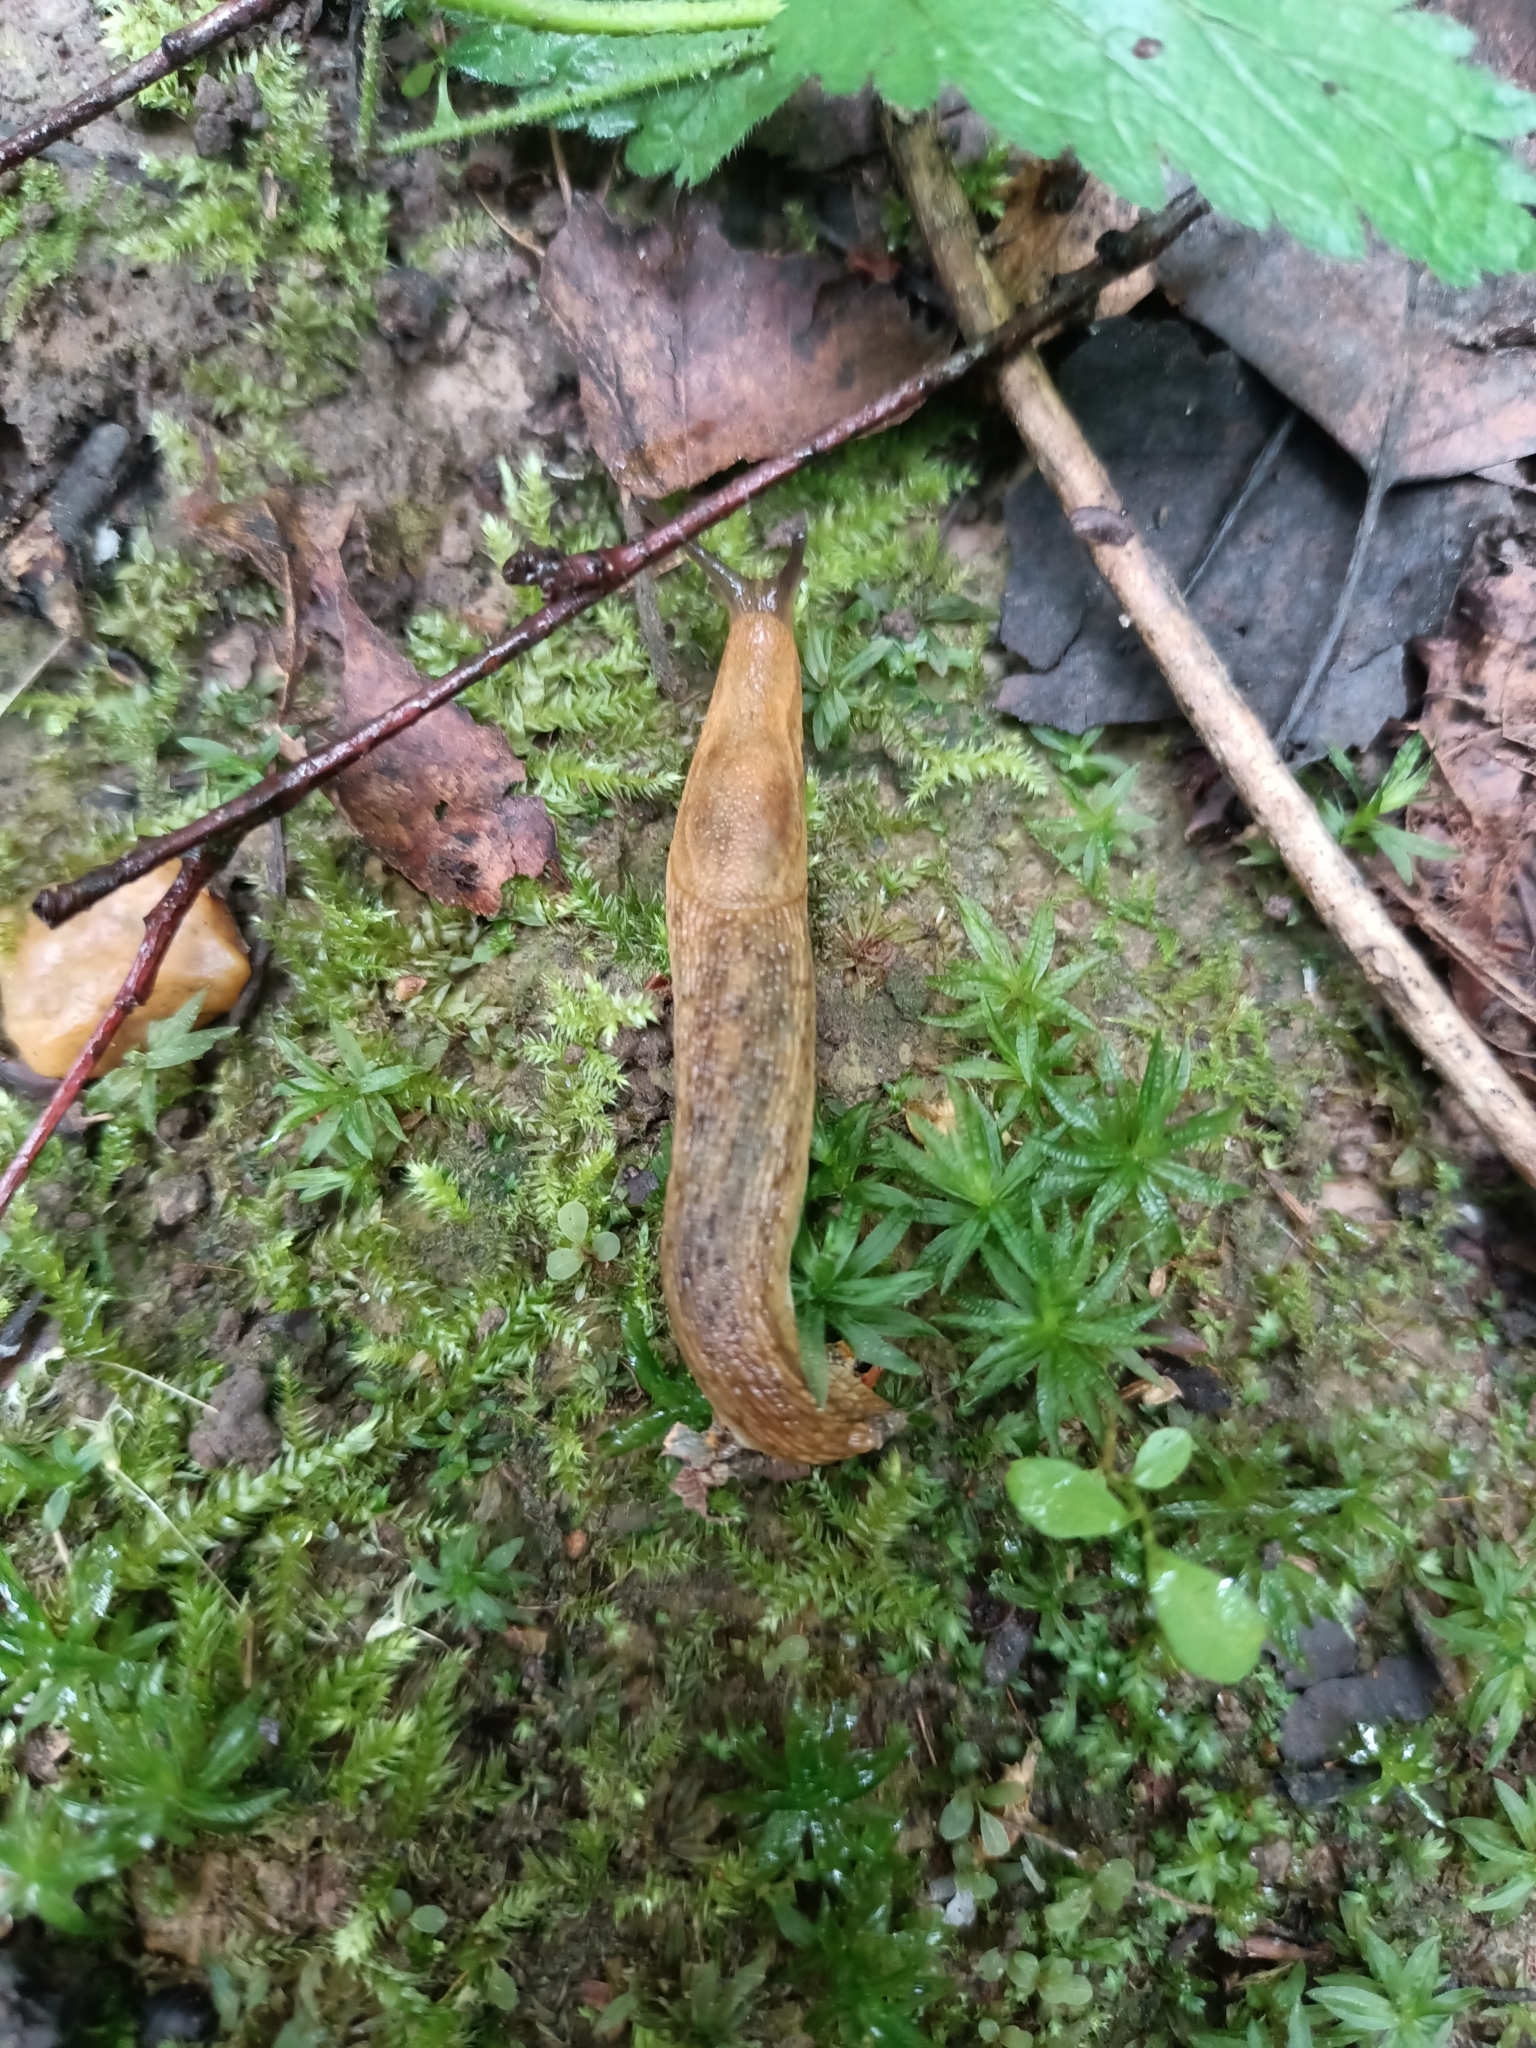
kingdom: Animalia
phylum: Mollusca
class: Gastropoda
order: Stylommatophora
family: Arionidae
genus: Arion
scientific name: Arion fuscus
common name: Northern dusky slug
